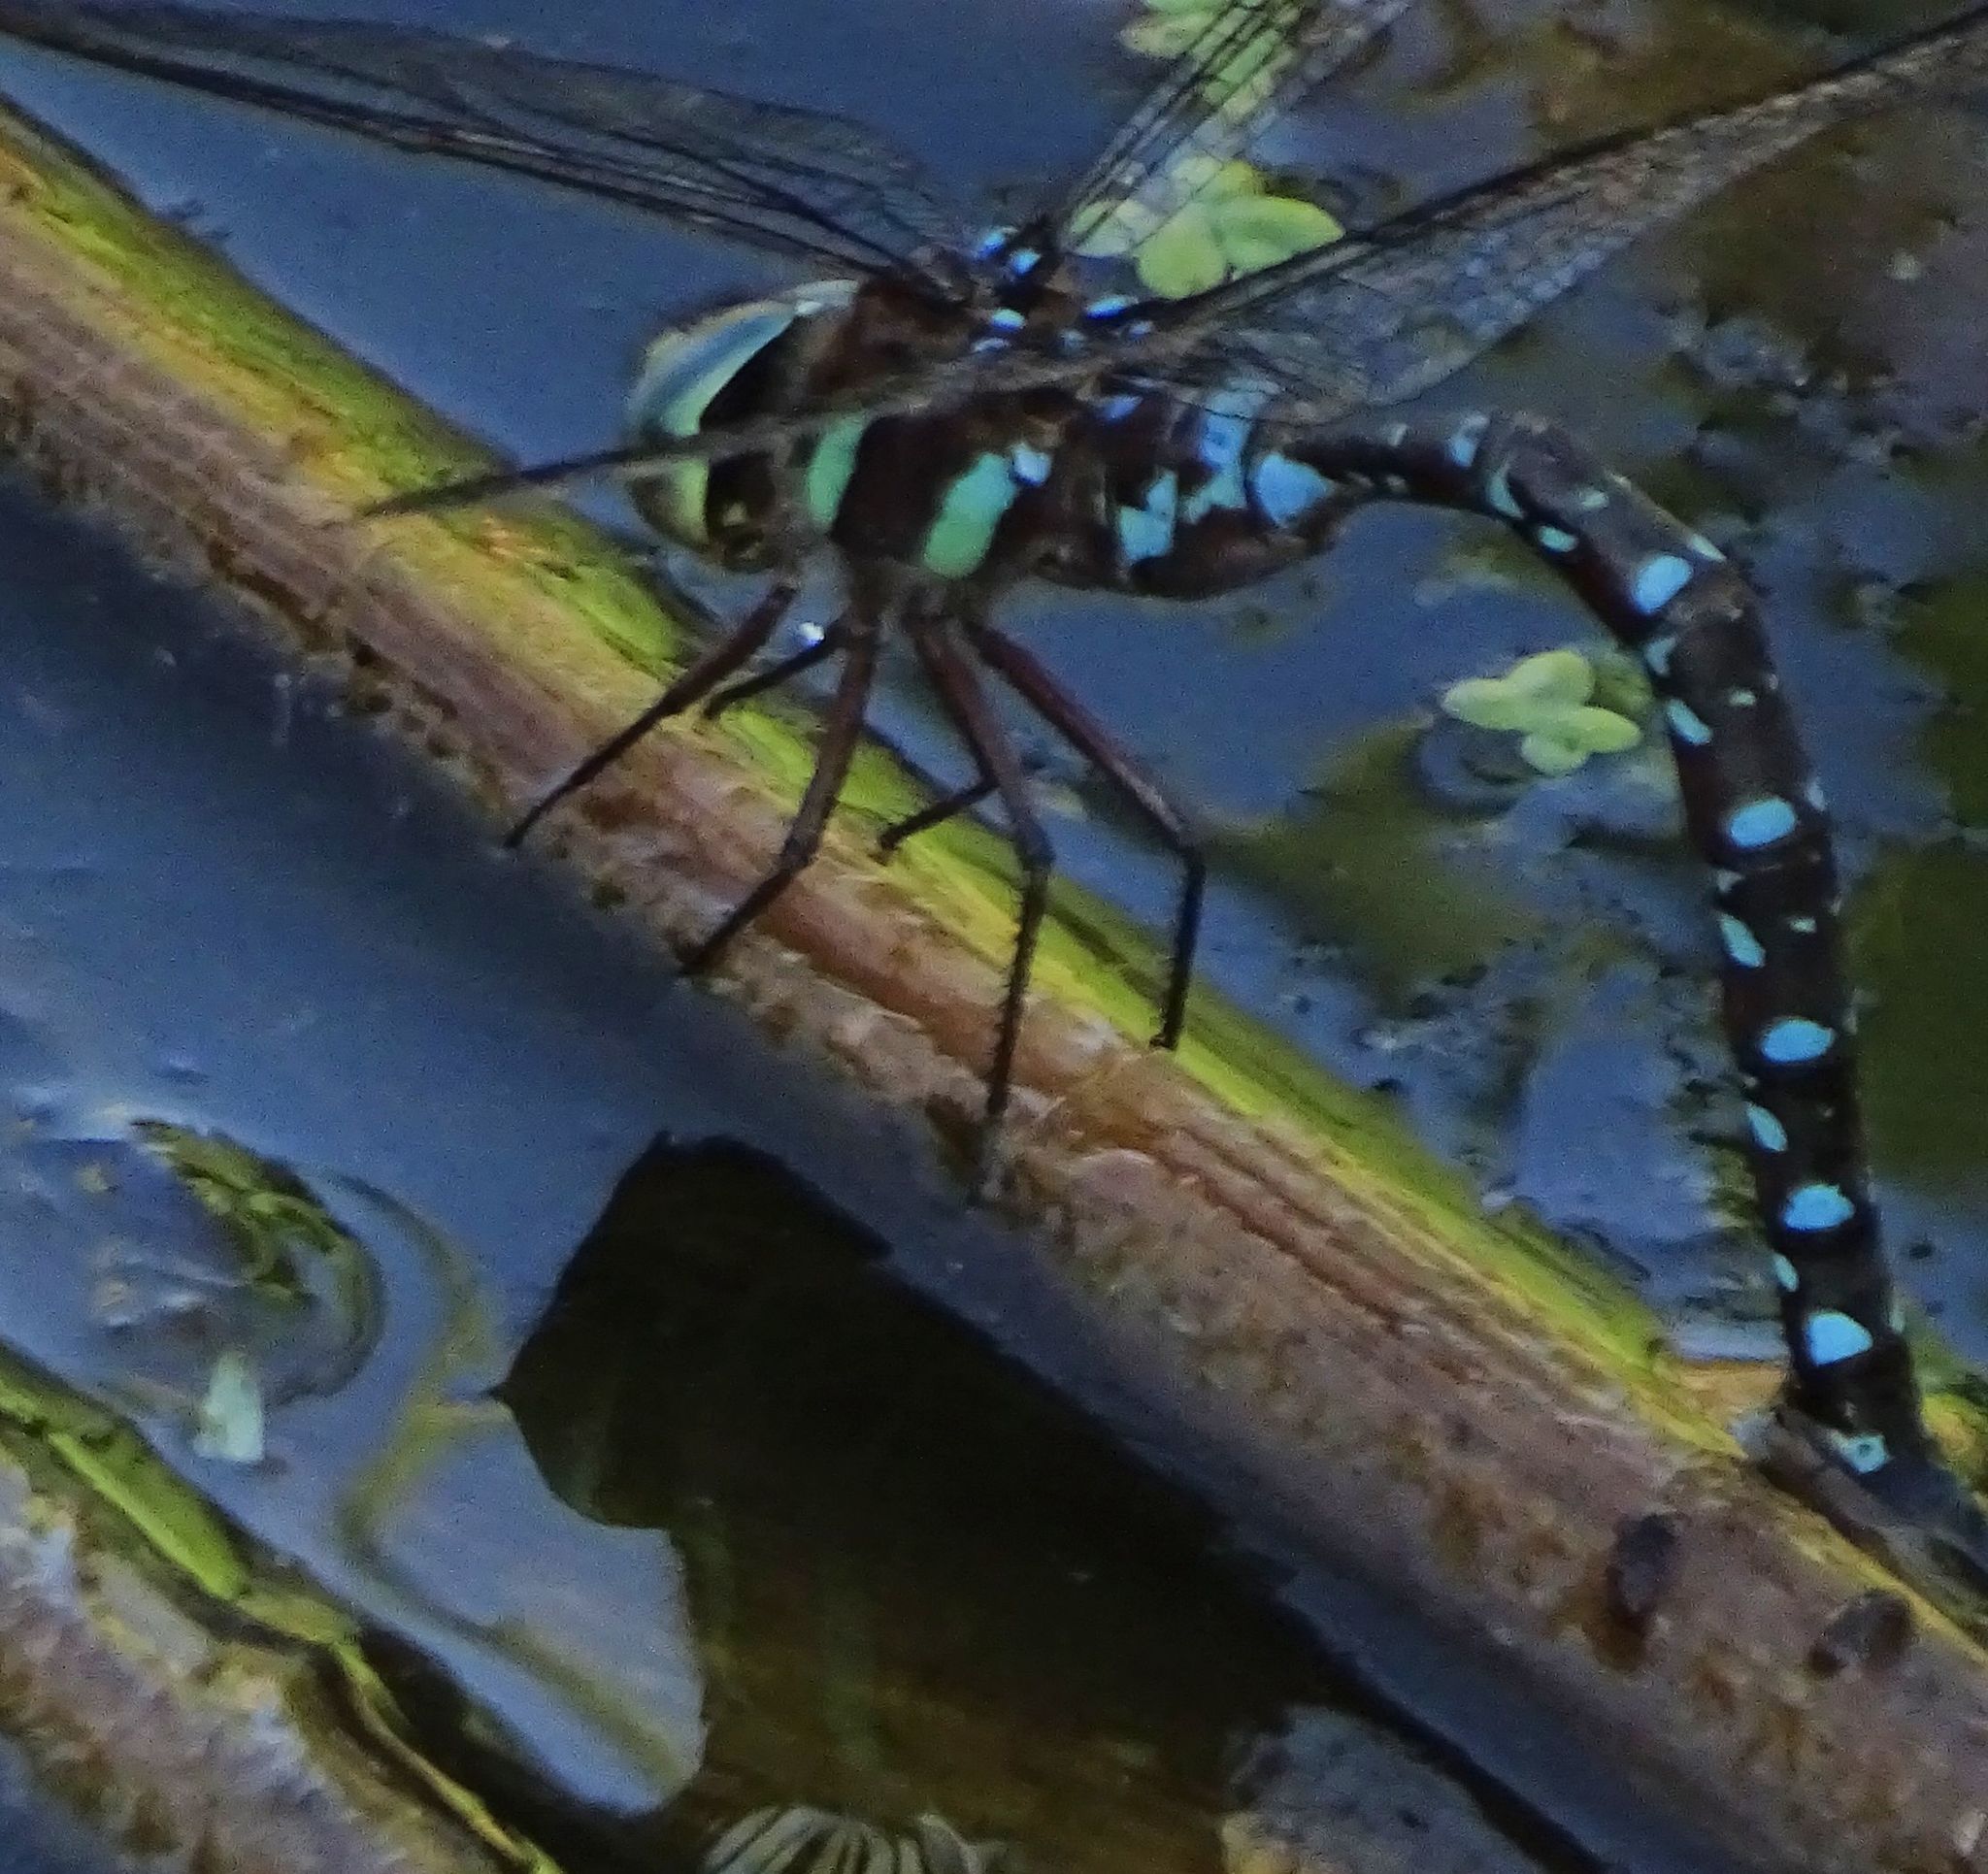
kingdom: Animalia
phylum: Arthropoda
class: Insecta
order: Odonata
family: Aeshnidae
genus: Aeshna
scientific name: Aeshna tuberculifera
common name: Aeschne à tubercules
